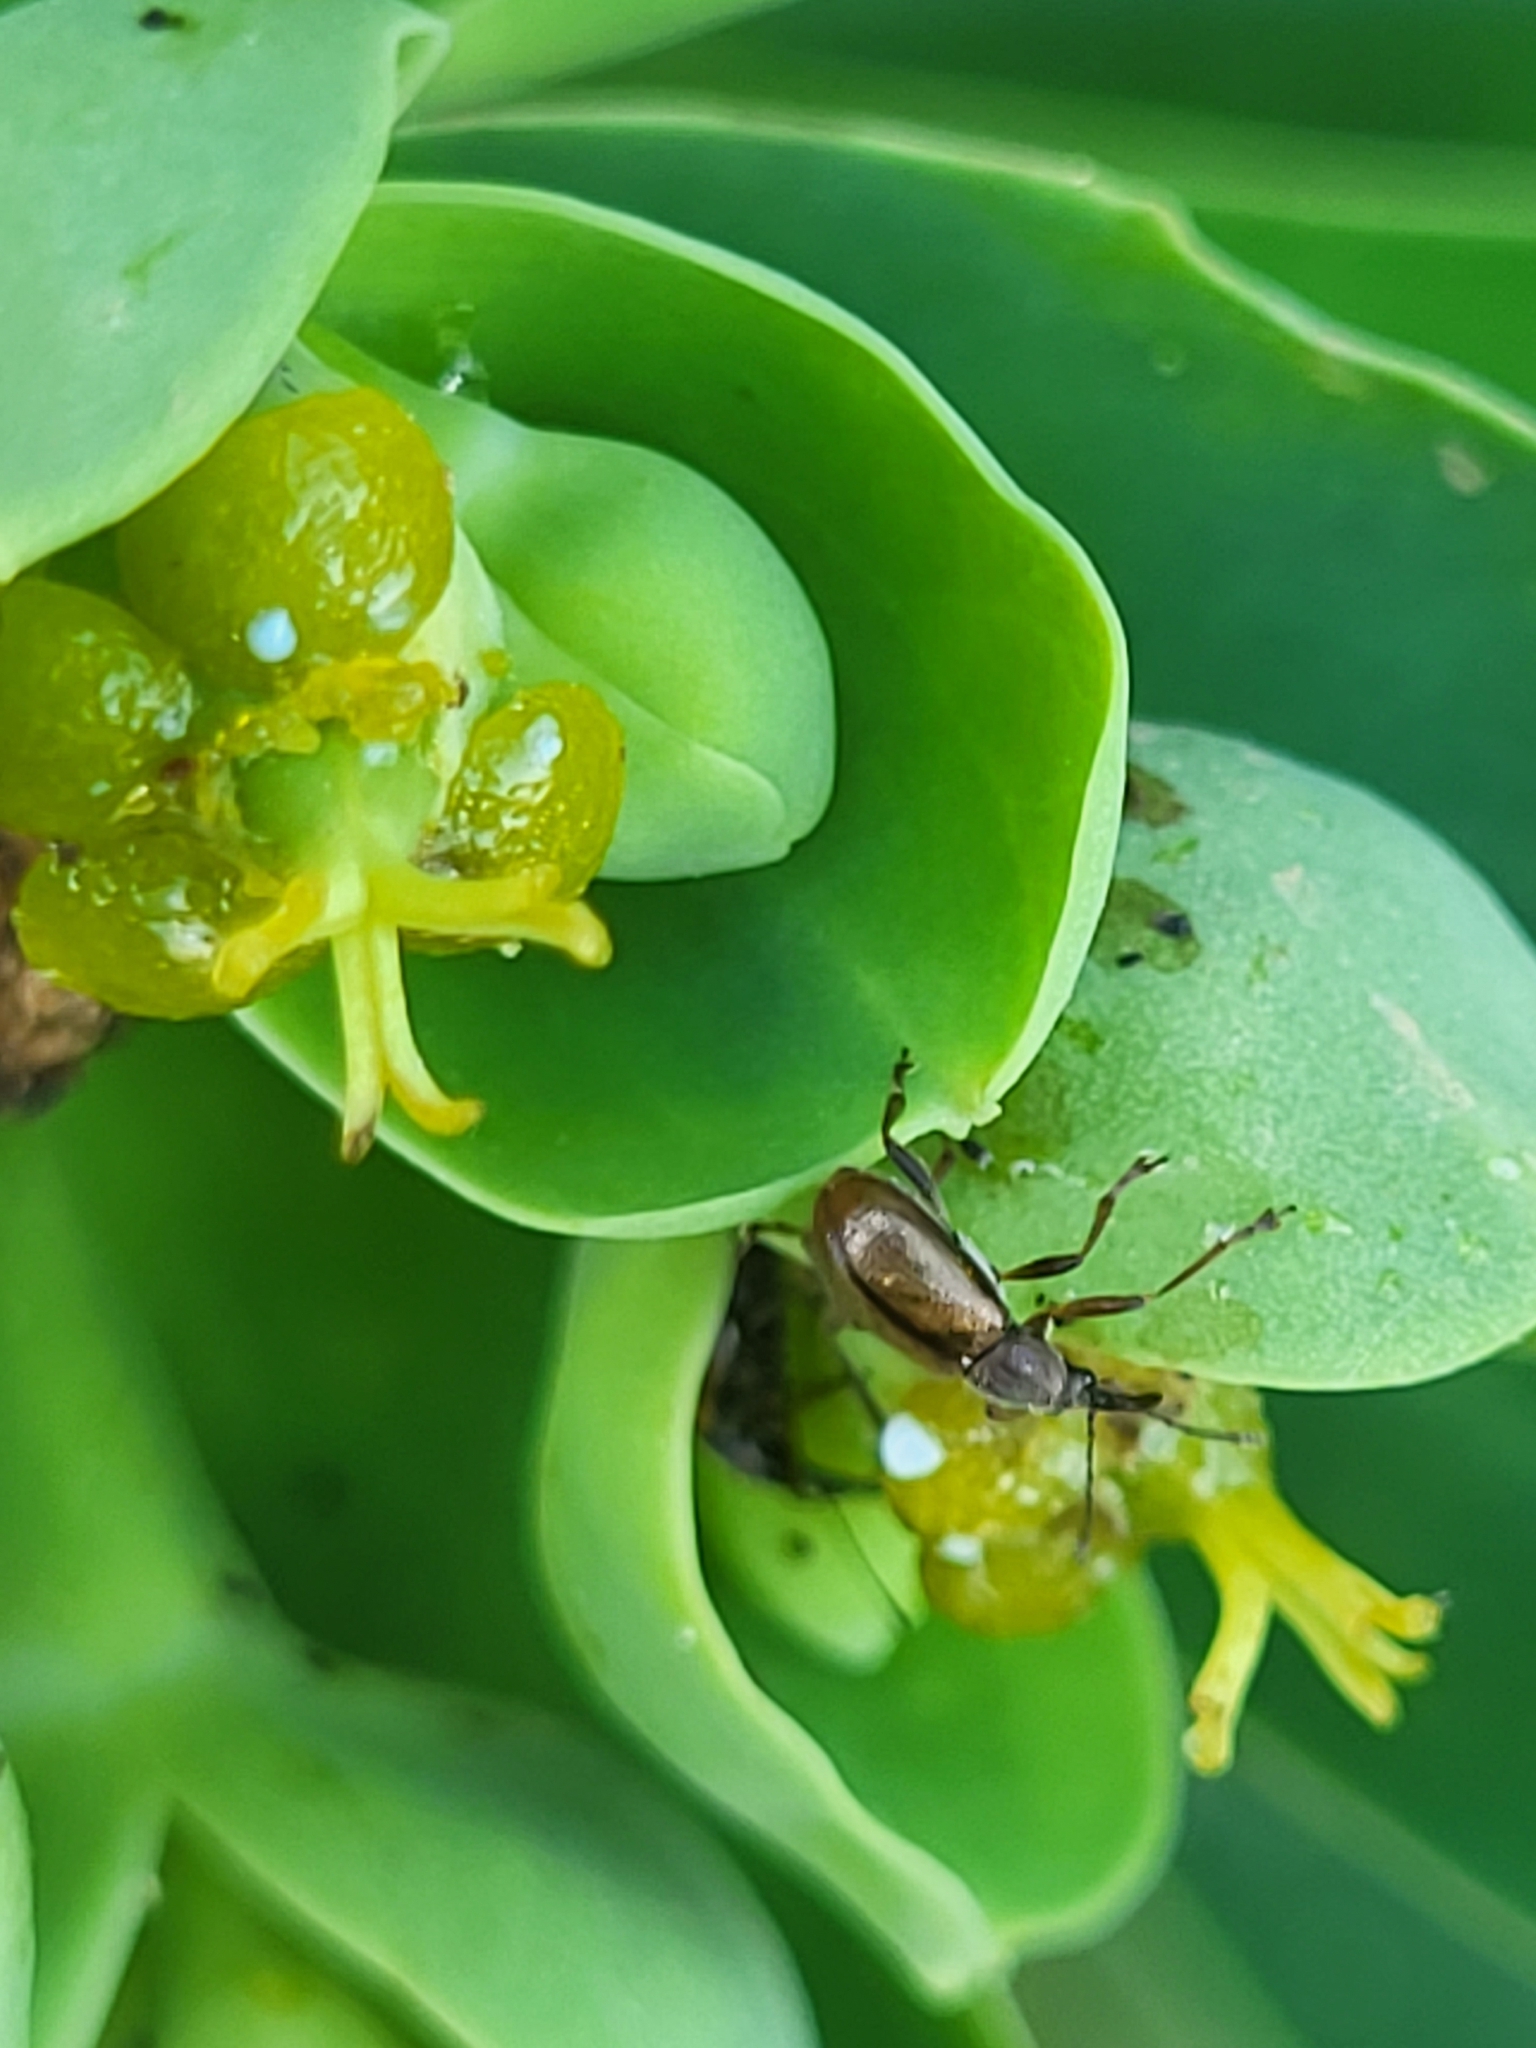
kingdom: Animalia
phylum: Arthropoda
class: Insecta
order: Coleoptera
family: Attelabidae
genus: Auletobius
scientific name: Auletobius euphorbiae
